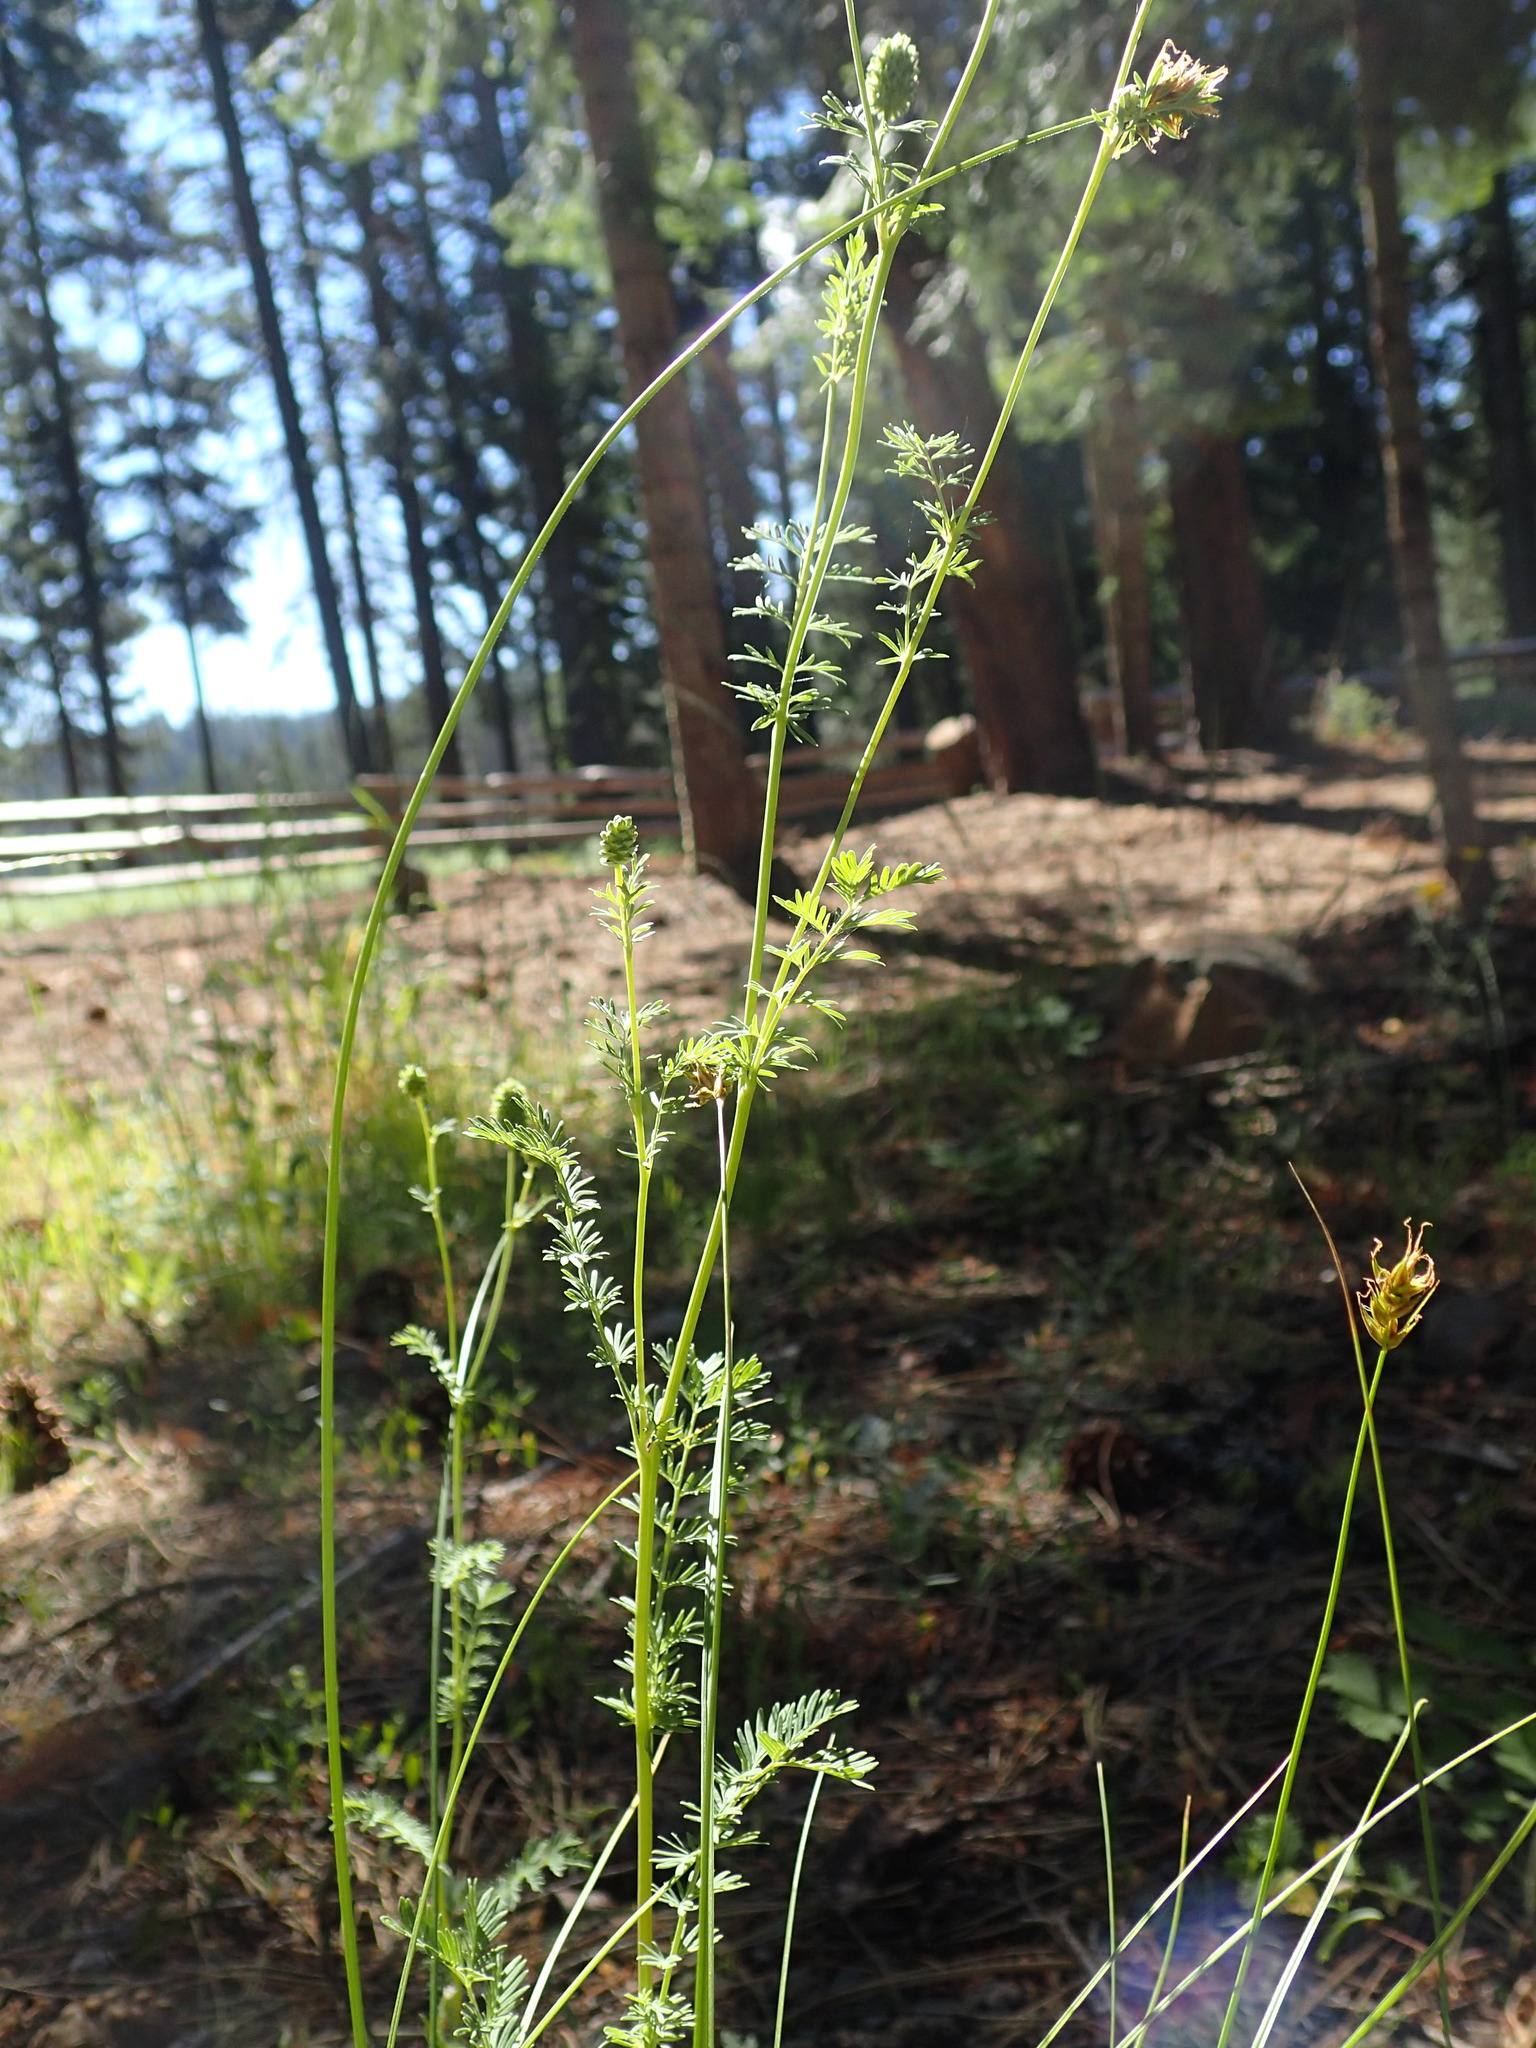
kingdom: Plantae
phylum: Tracheophyta
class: Magnoliopsida
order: Rosales
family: Rosaceae
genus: Poteridium
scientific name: Poteridium occidentale
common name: Western burnet
